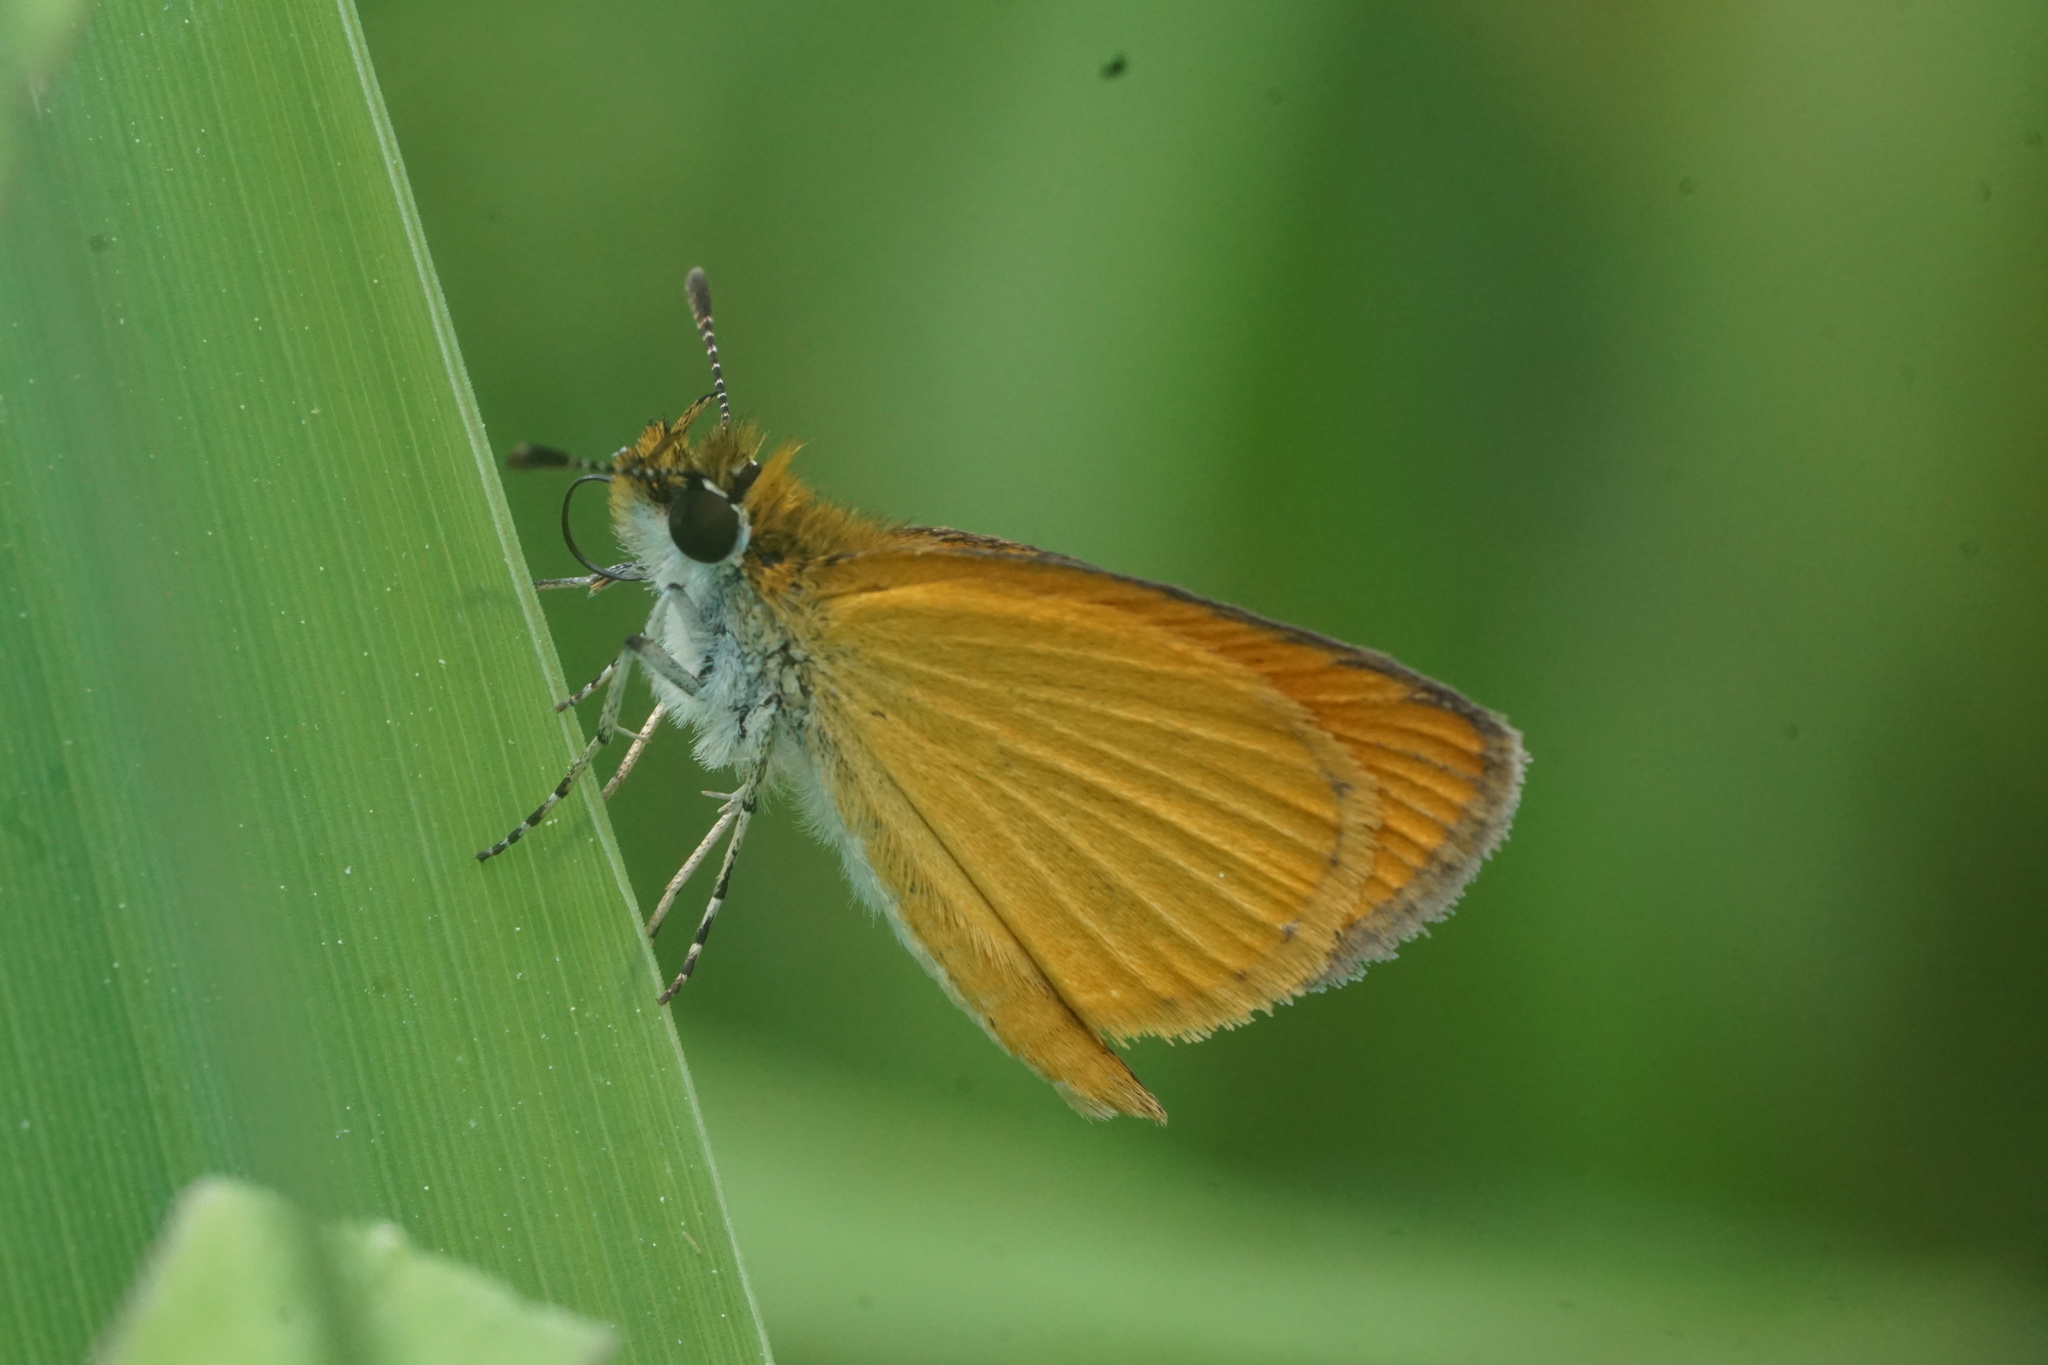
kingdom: Animalia
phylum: Arthropoda
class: Insecta
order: Lepidoptera
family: Hesperiidae
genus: Ancyloxypha
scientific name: Ancyloxypha numitor
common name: Least skipper
